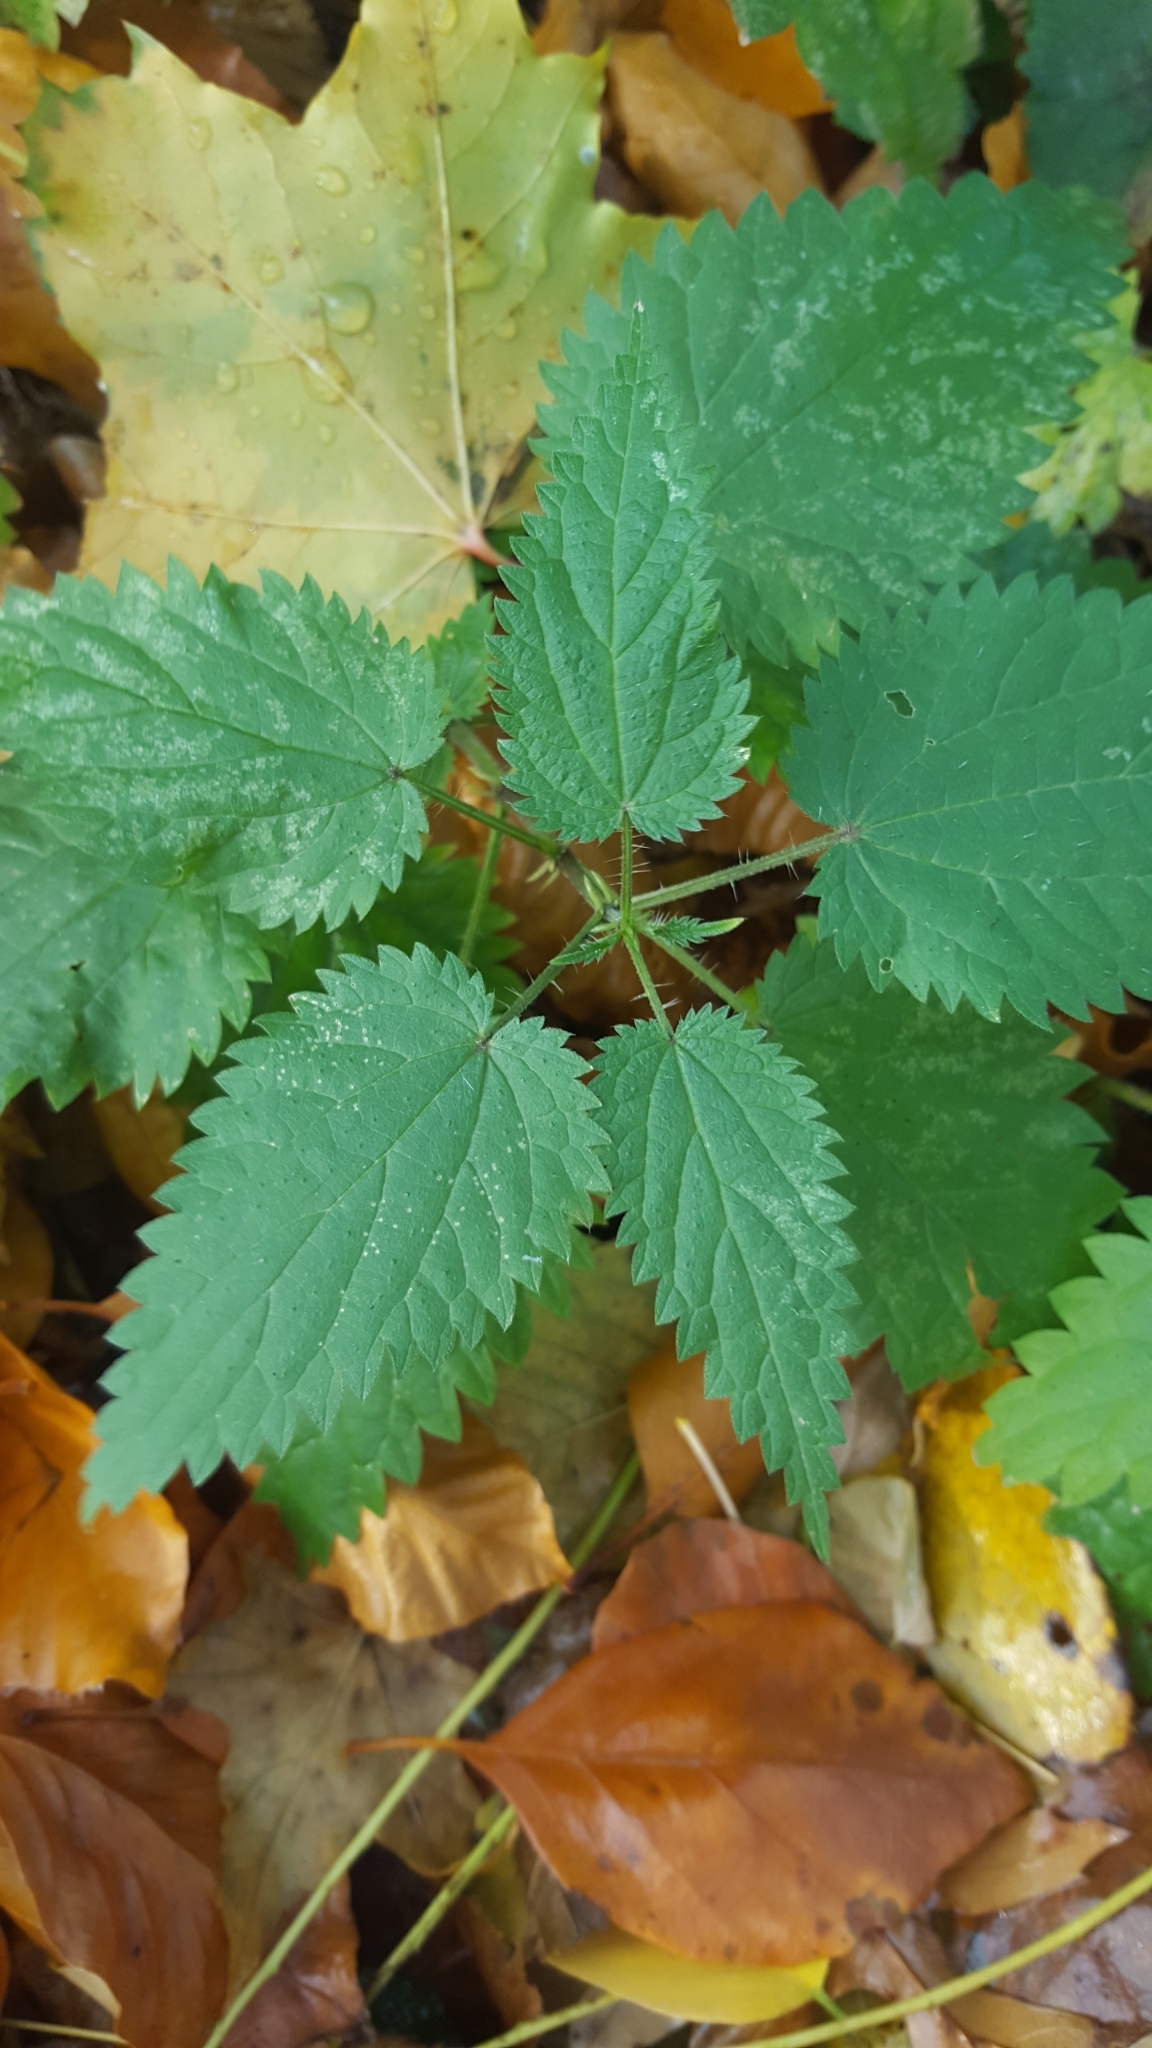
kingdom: Plantae
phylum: Tracheophyta
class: Magnoliopsida
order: Rosales
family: Urticaceae
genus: Urtica
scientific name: Urtica dioica
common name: Common nettle
